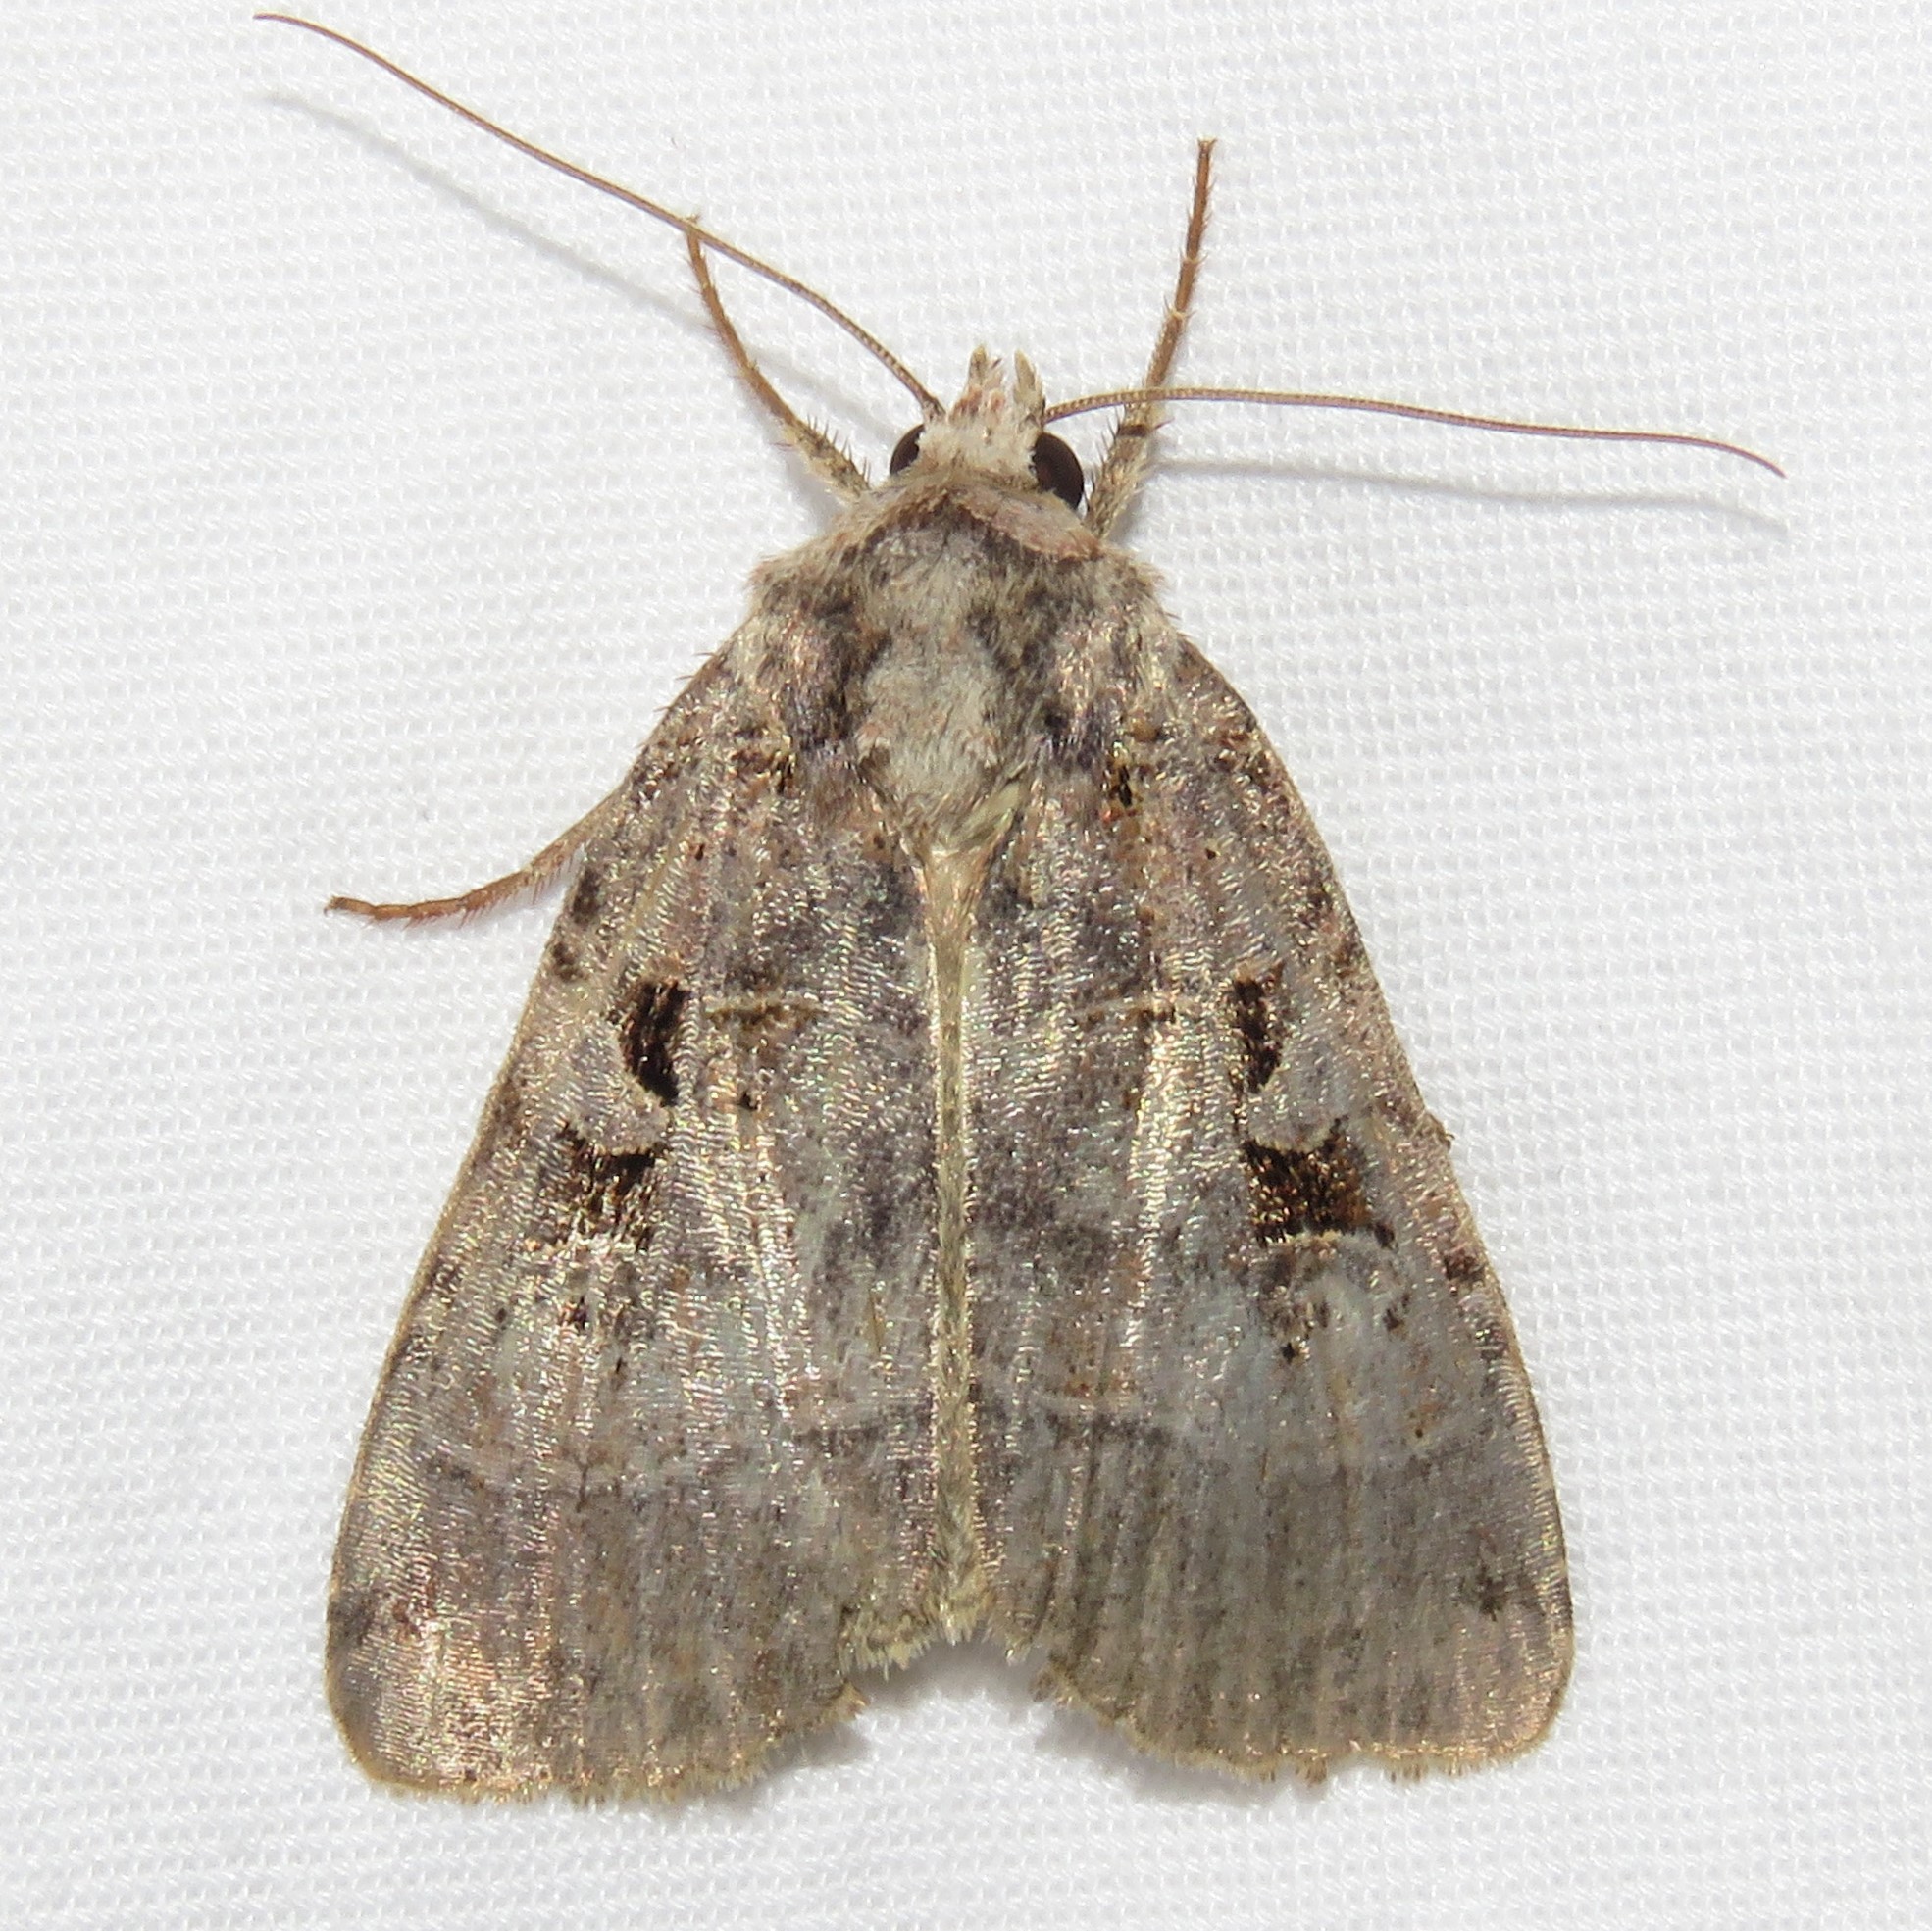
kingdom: Animalia
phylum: Arthropoda
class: Insecta
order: Lepidoptera
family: Noctuidae
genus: Xestia
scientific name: Xestia normaniana
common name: Norman's dart moth
